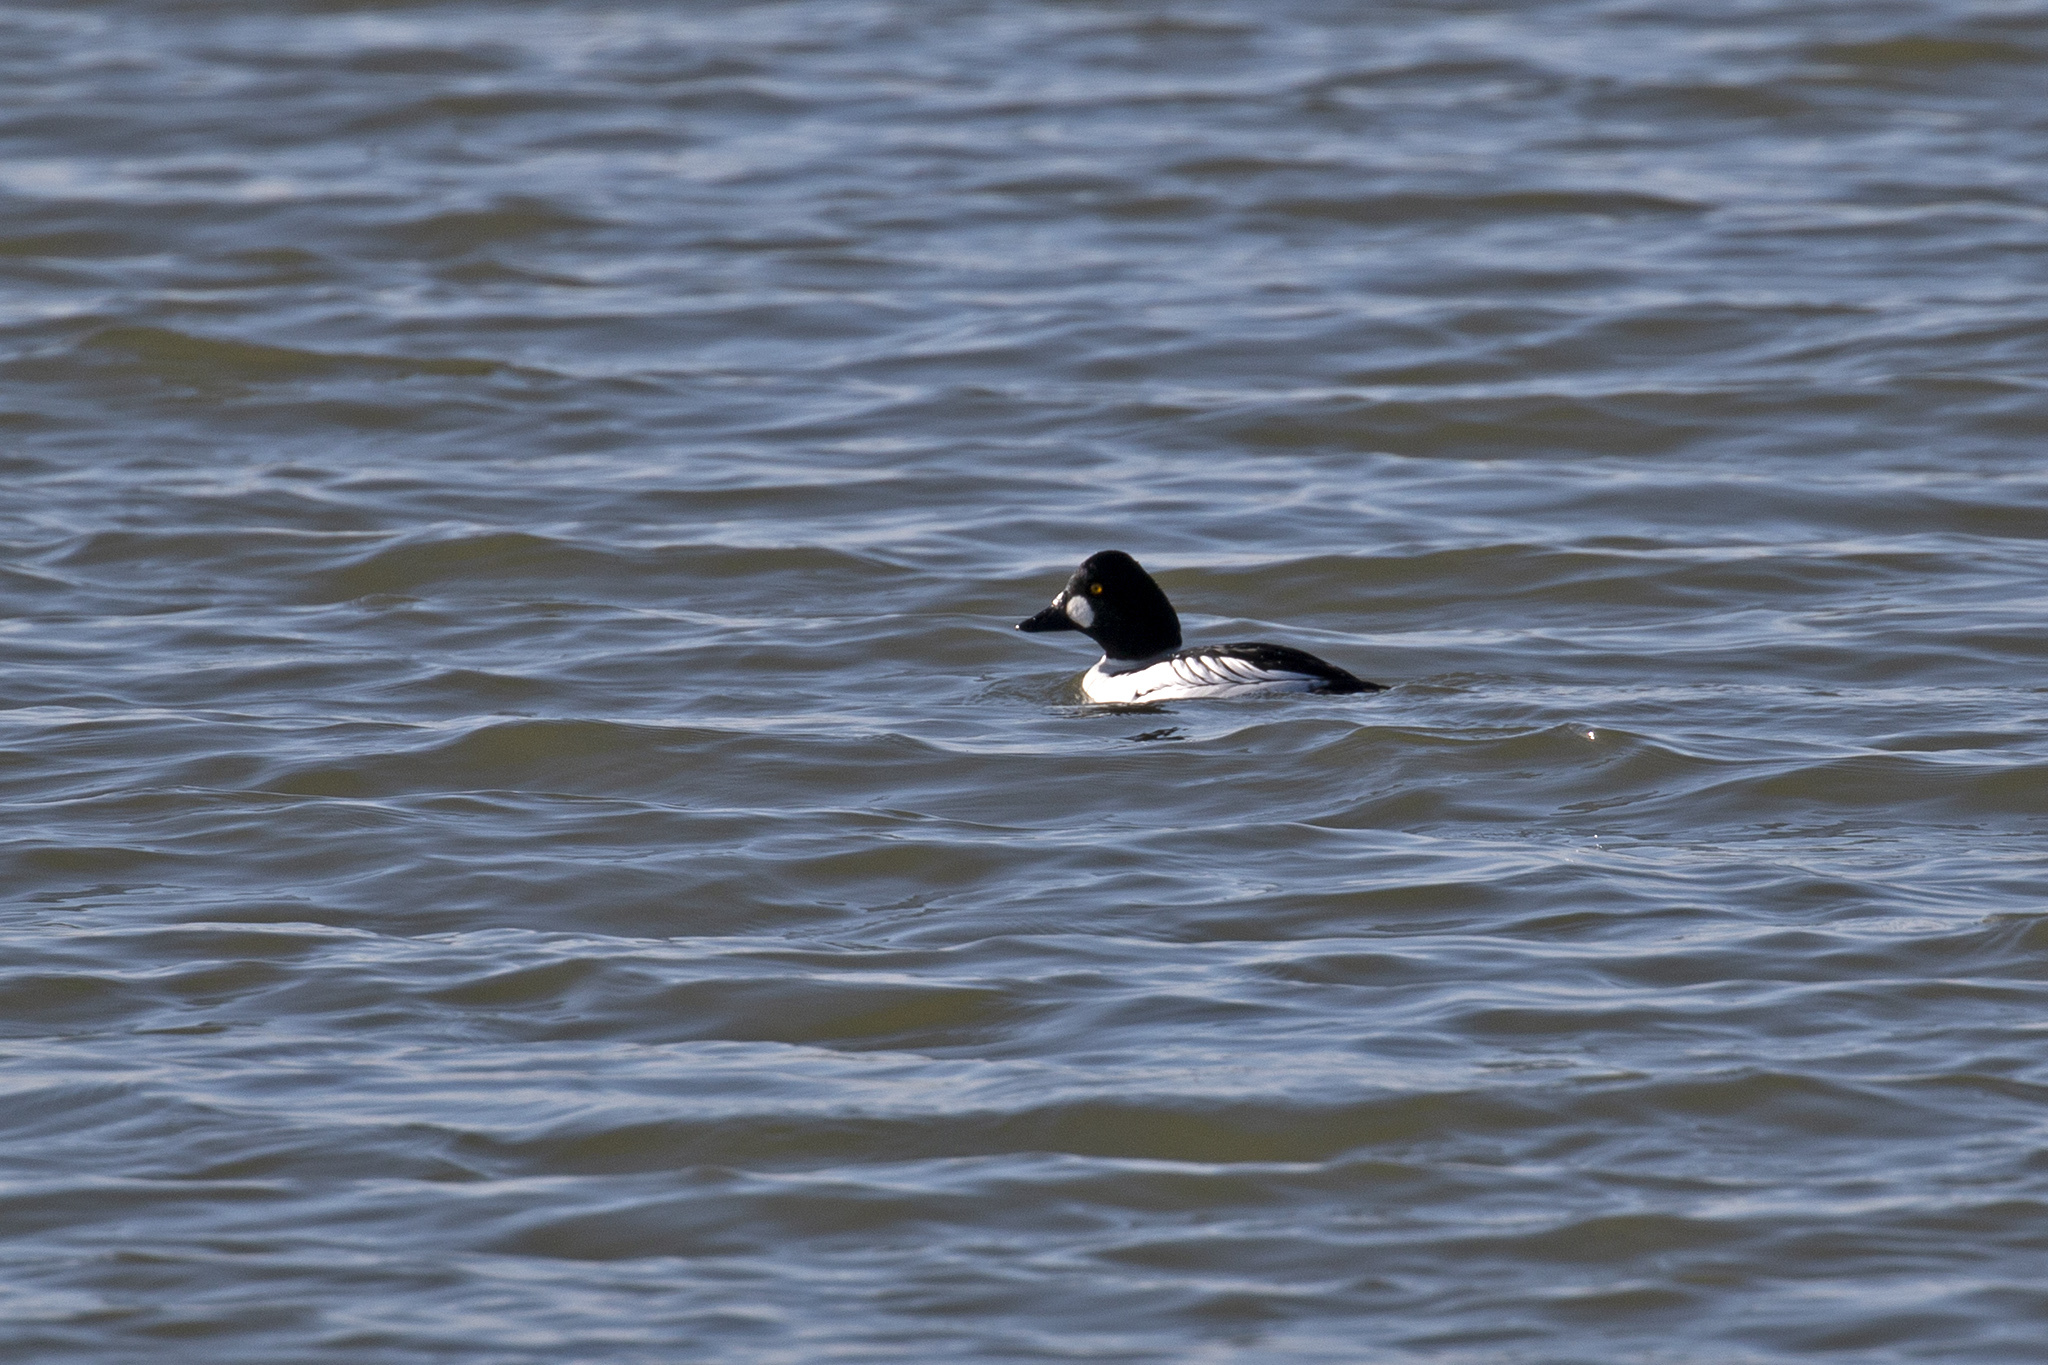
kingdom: Animalia
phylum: Chordata
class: Aves
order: Anseriformes
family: Anatidae
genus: Bucephala
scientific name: Bucephala clangula
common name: Common goldeneye
